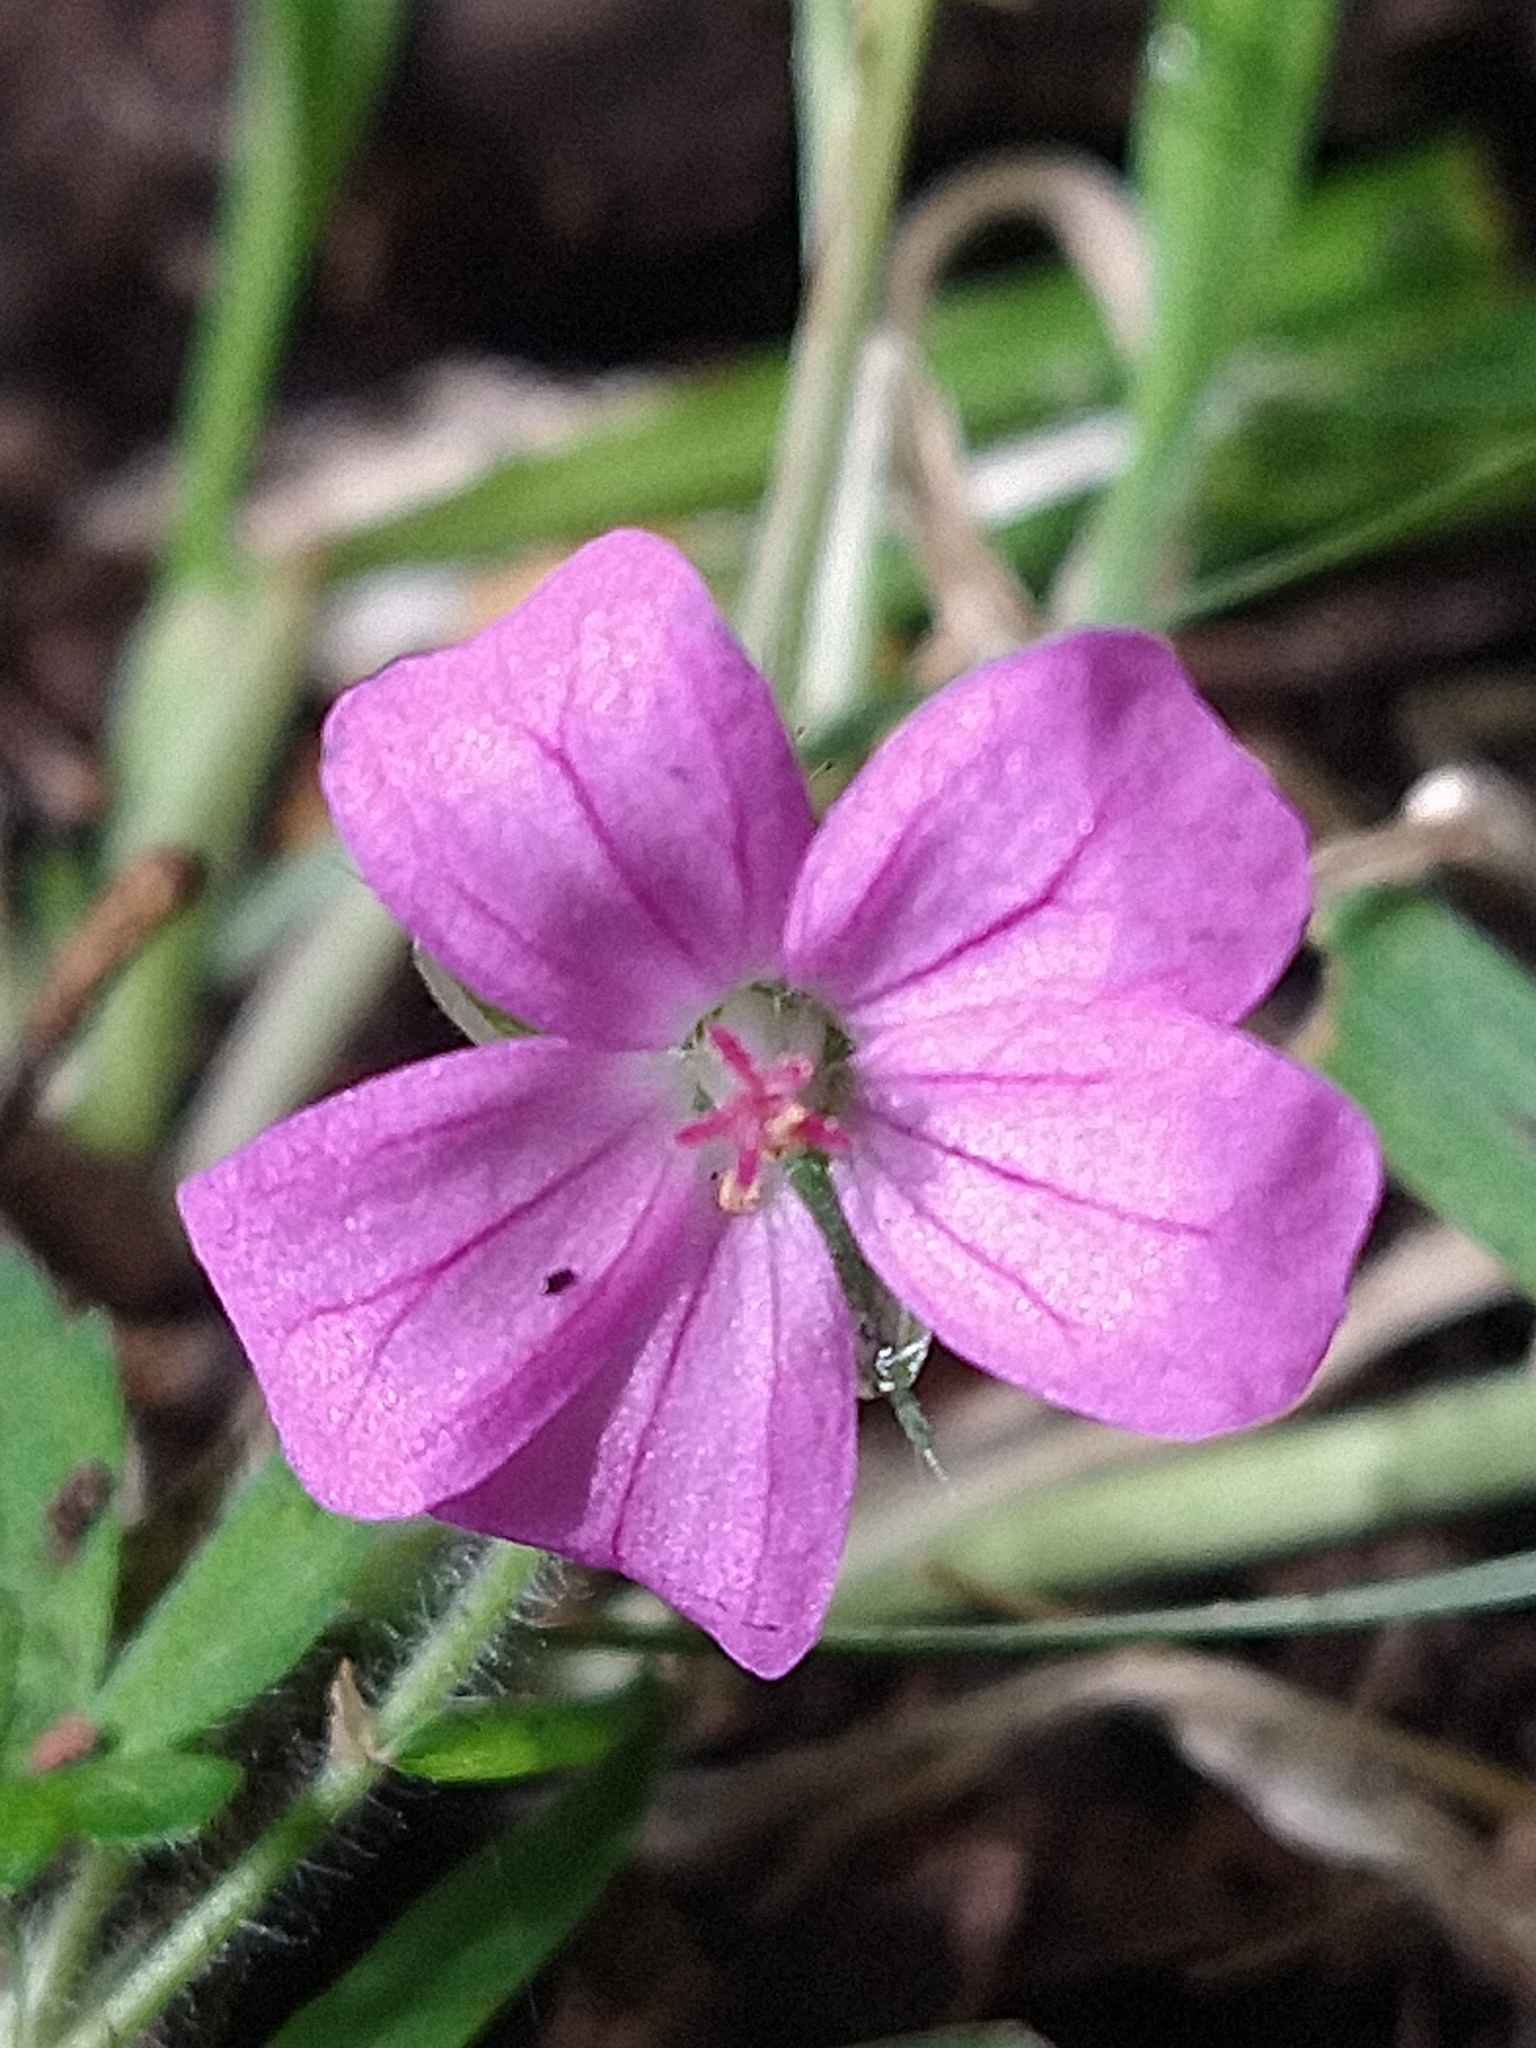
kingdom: Plantae
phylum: Tracheophyta
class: Magnoliopsida
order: Geraniales
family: Geraniaceae
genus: Geranium
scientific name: Geranium magellanicum
